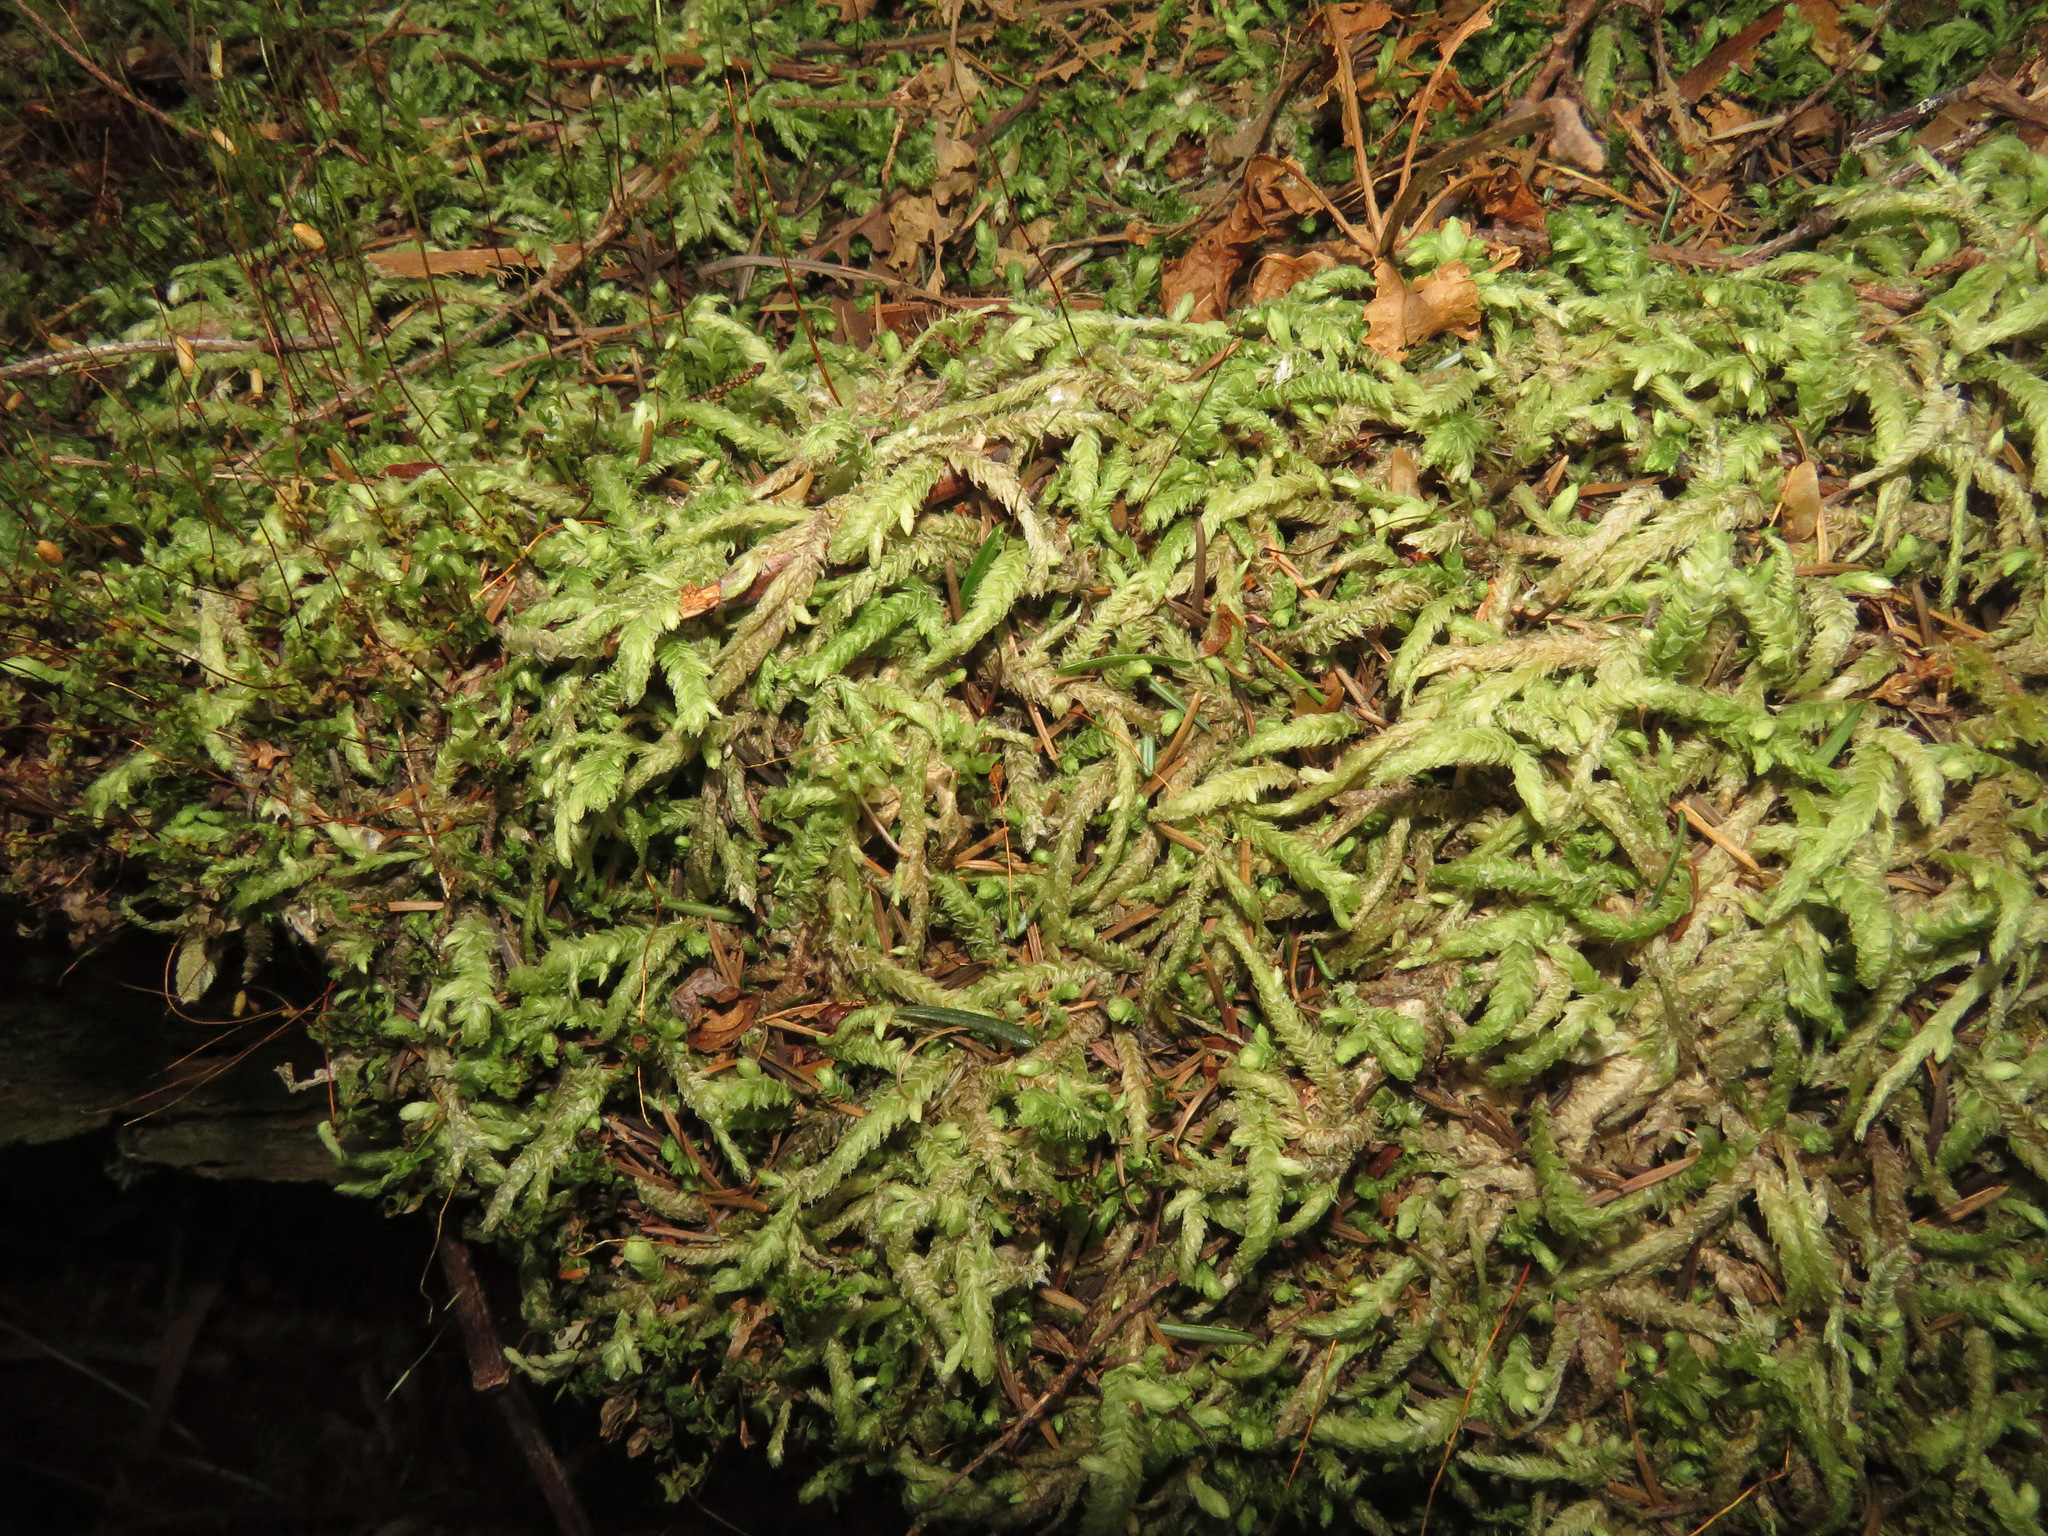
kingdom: Plantae
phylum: Bryophyta
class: Bryopsida
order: Hypnales
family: Plagiotheciaceae
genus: Plagiothecium
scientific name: Plagiothecium undulatum
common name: Waved silk-moss
